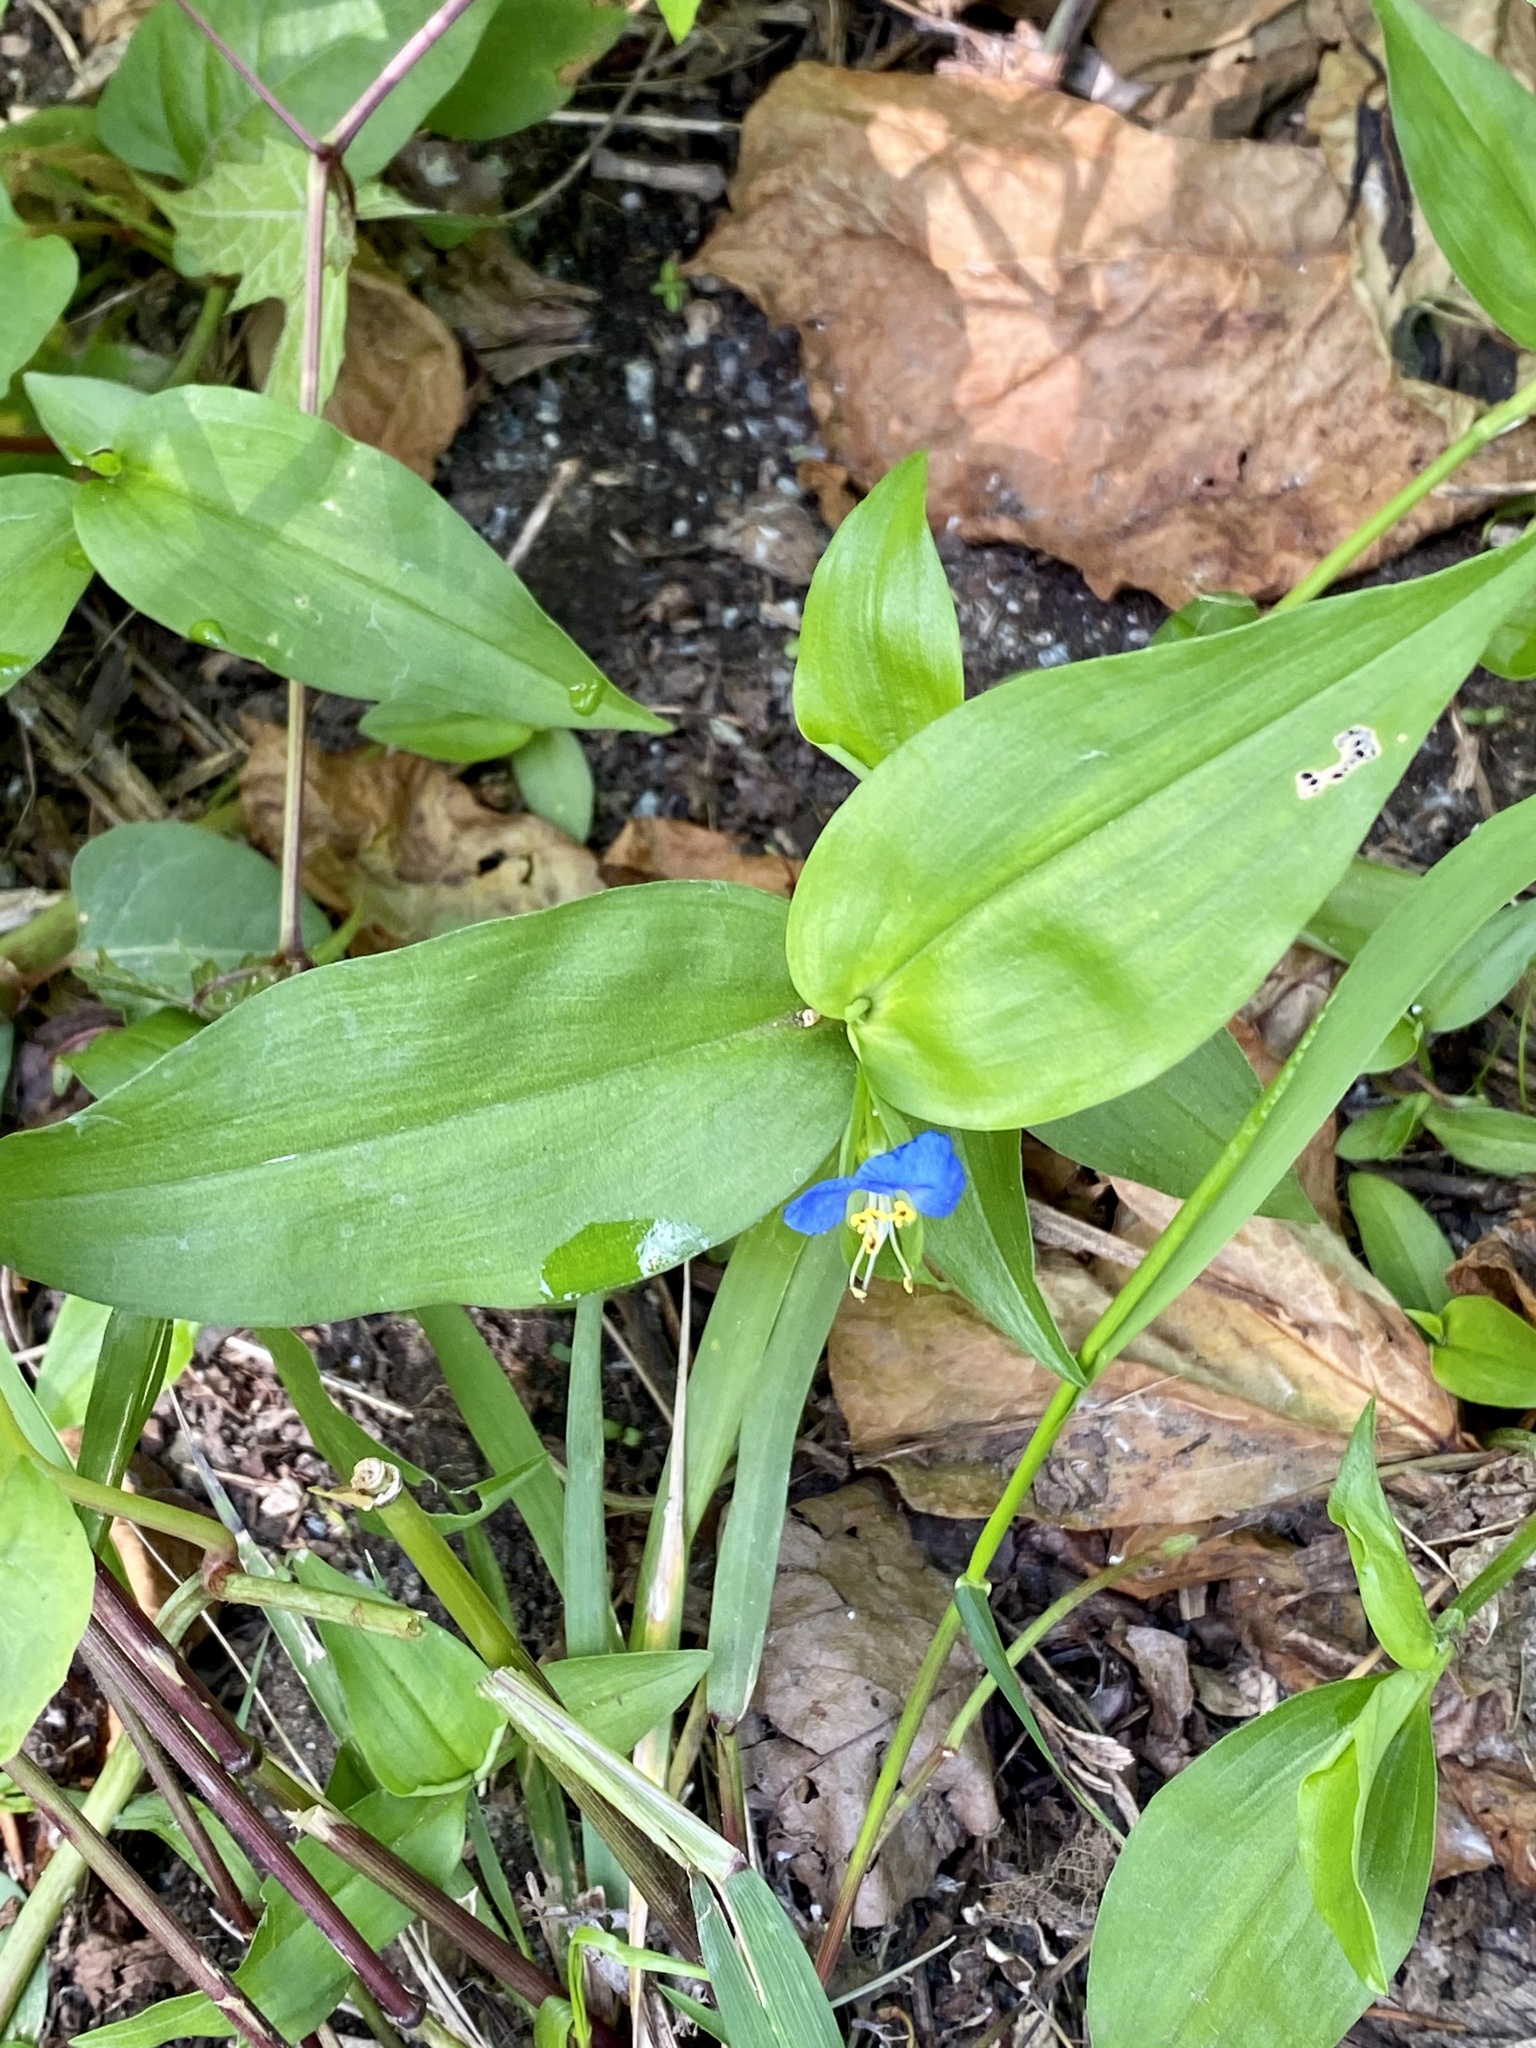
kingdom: Plantae
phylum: Tracheophyta
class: Liliopsida
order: Commelinales
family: Commelinaceae
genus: Commelina
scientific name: Commelina communis
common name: Asiatic dayflower
